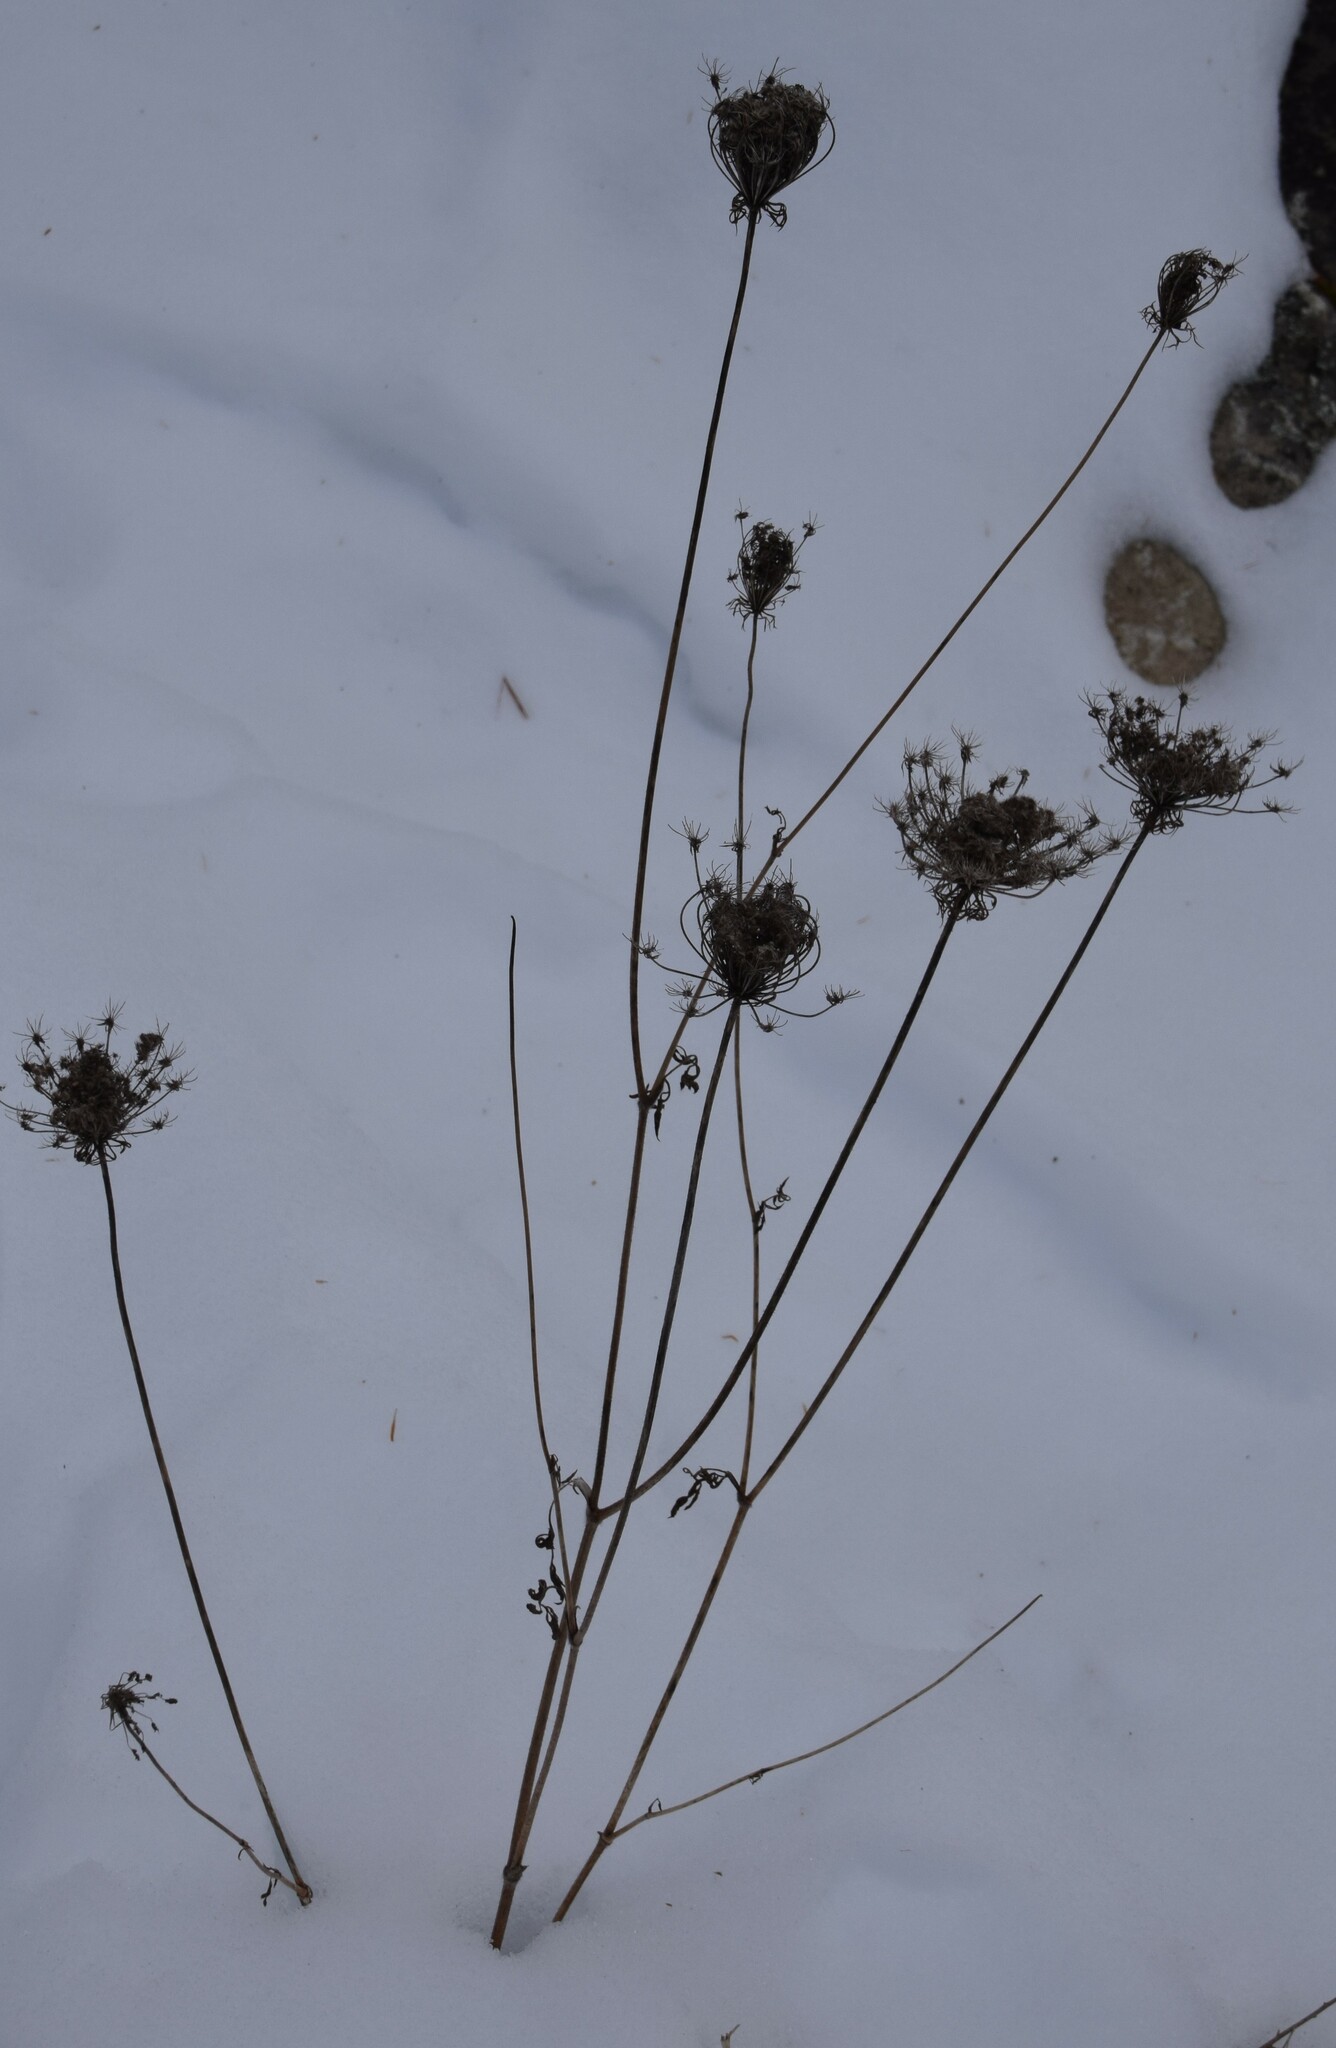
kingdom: Plantae
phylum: Tracheophyta
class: Magnoliopsida
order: Apiales
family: Apiaceae
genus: Daucus
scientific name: Daucus carota
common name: Wild carrot
